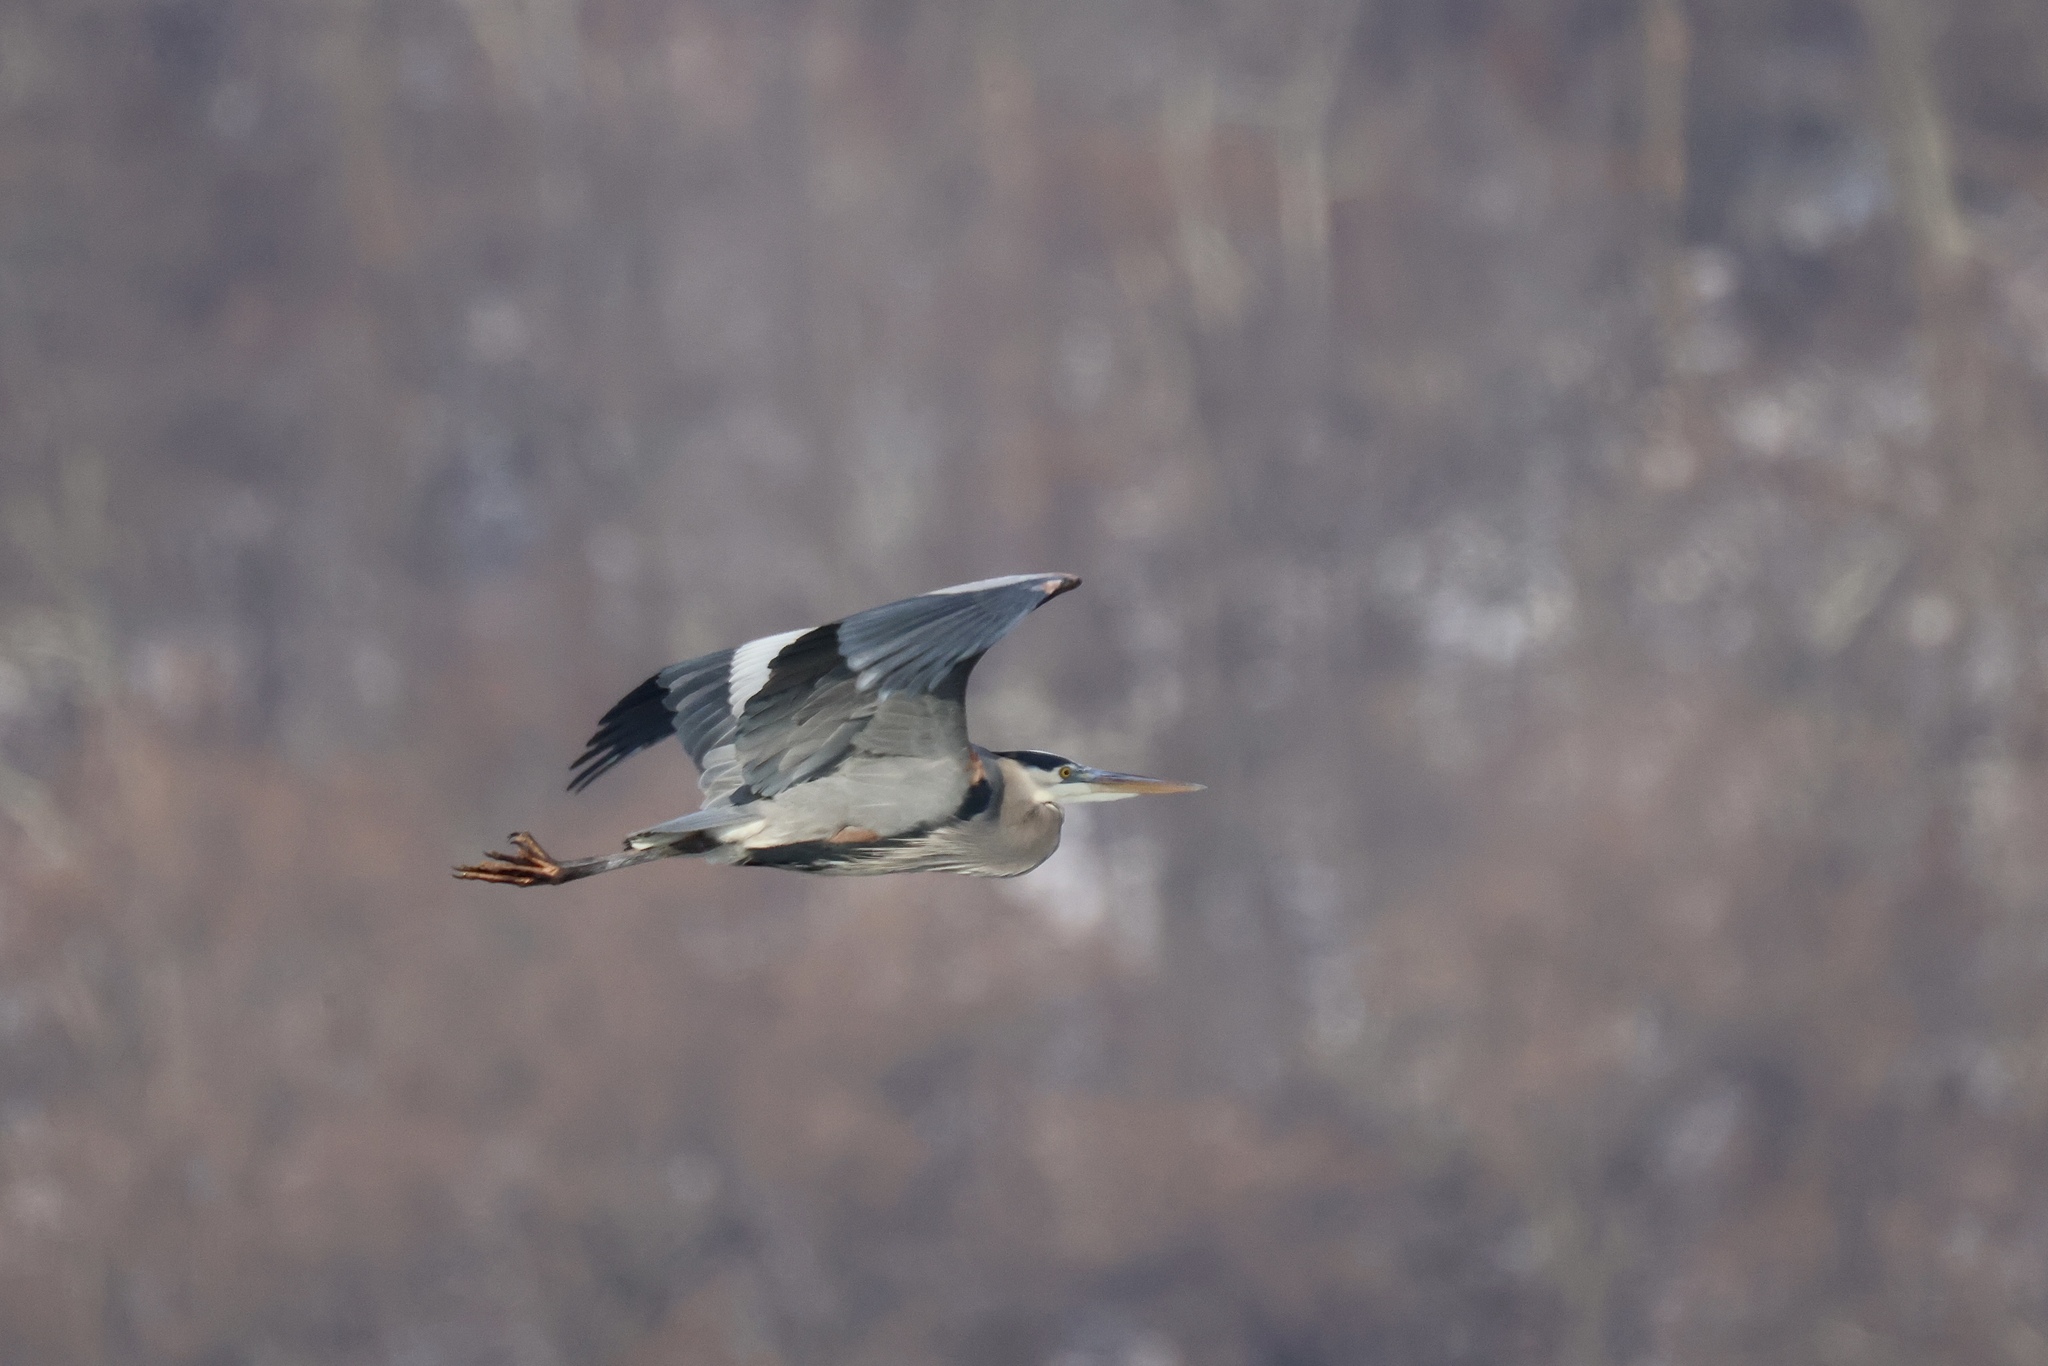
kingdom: Animalia
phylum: Chordata
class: Aves
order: Pelecaniformes
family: Ardeidae
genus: Ardea
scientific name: Ardea herodias
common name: Great blue heron
